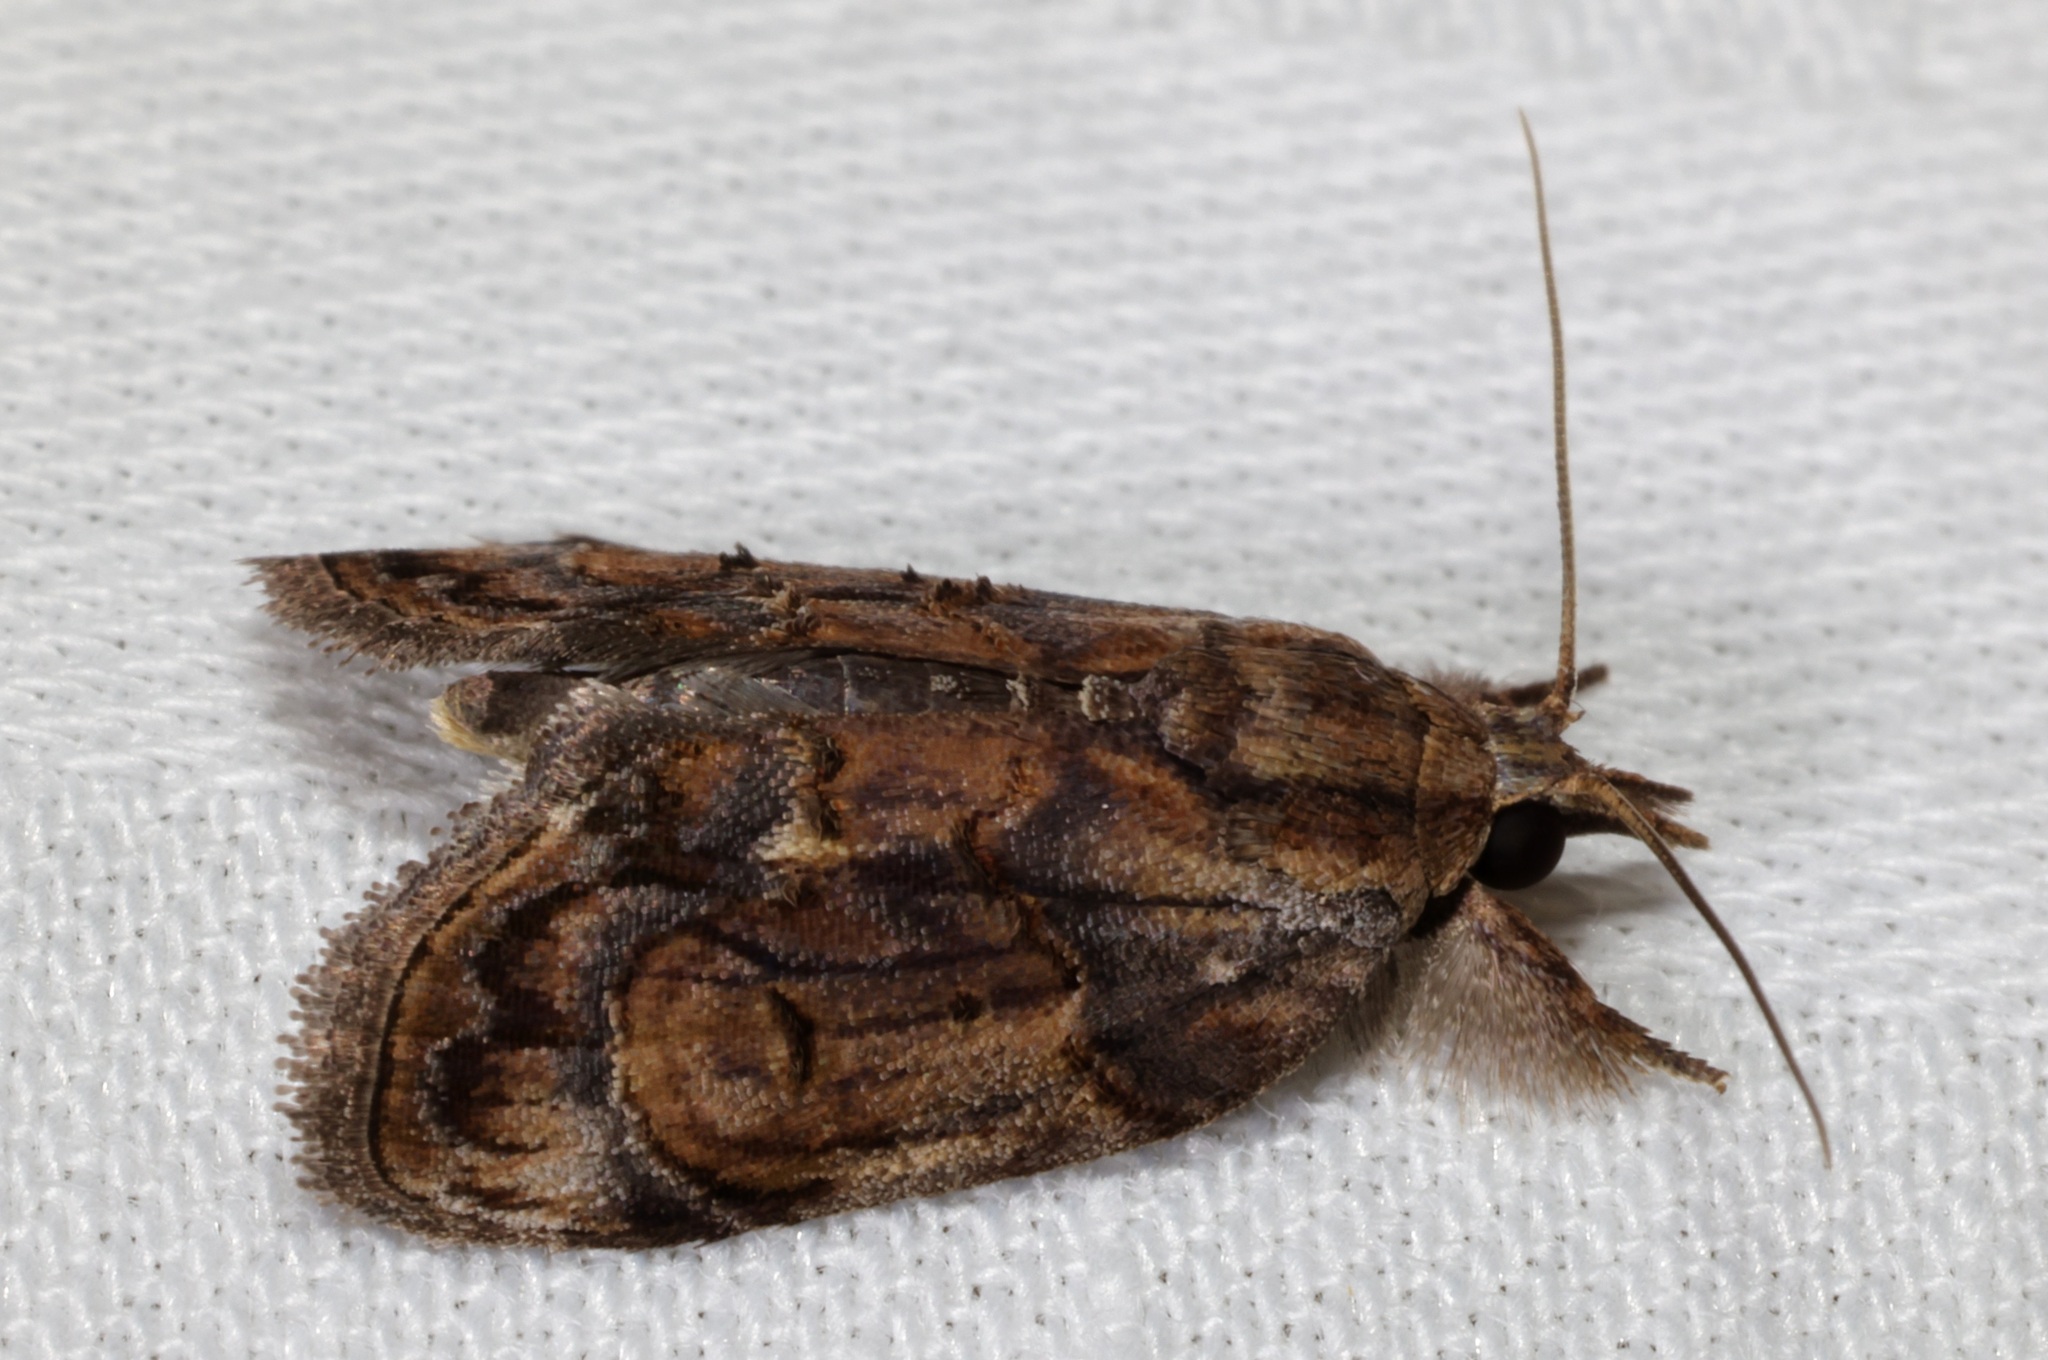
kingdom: Animalia
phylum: Arthropoda
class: Insecta
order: Lepidoptera
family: Nolidae
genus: Selepa
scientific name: Selepa discigera
